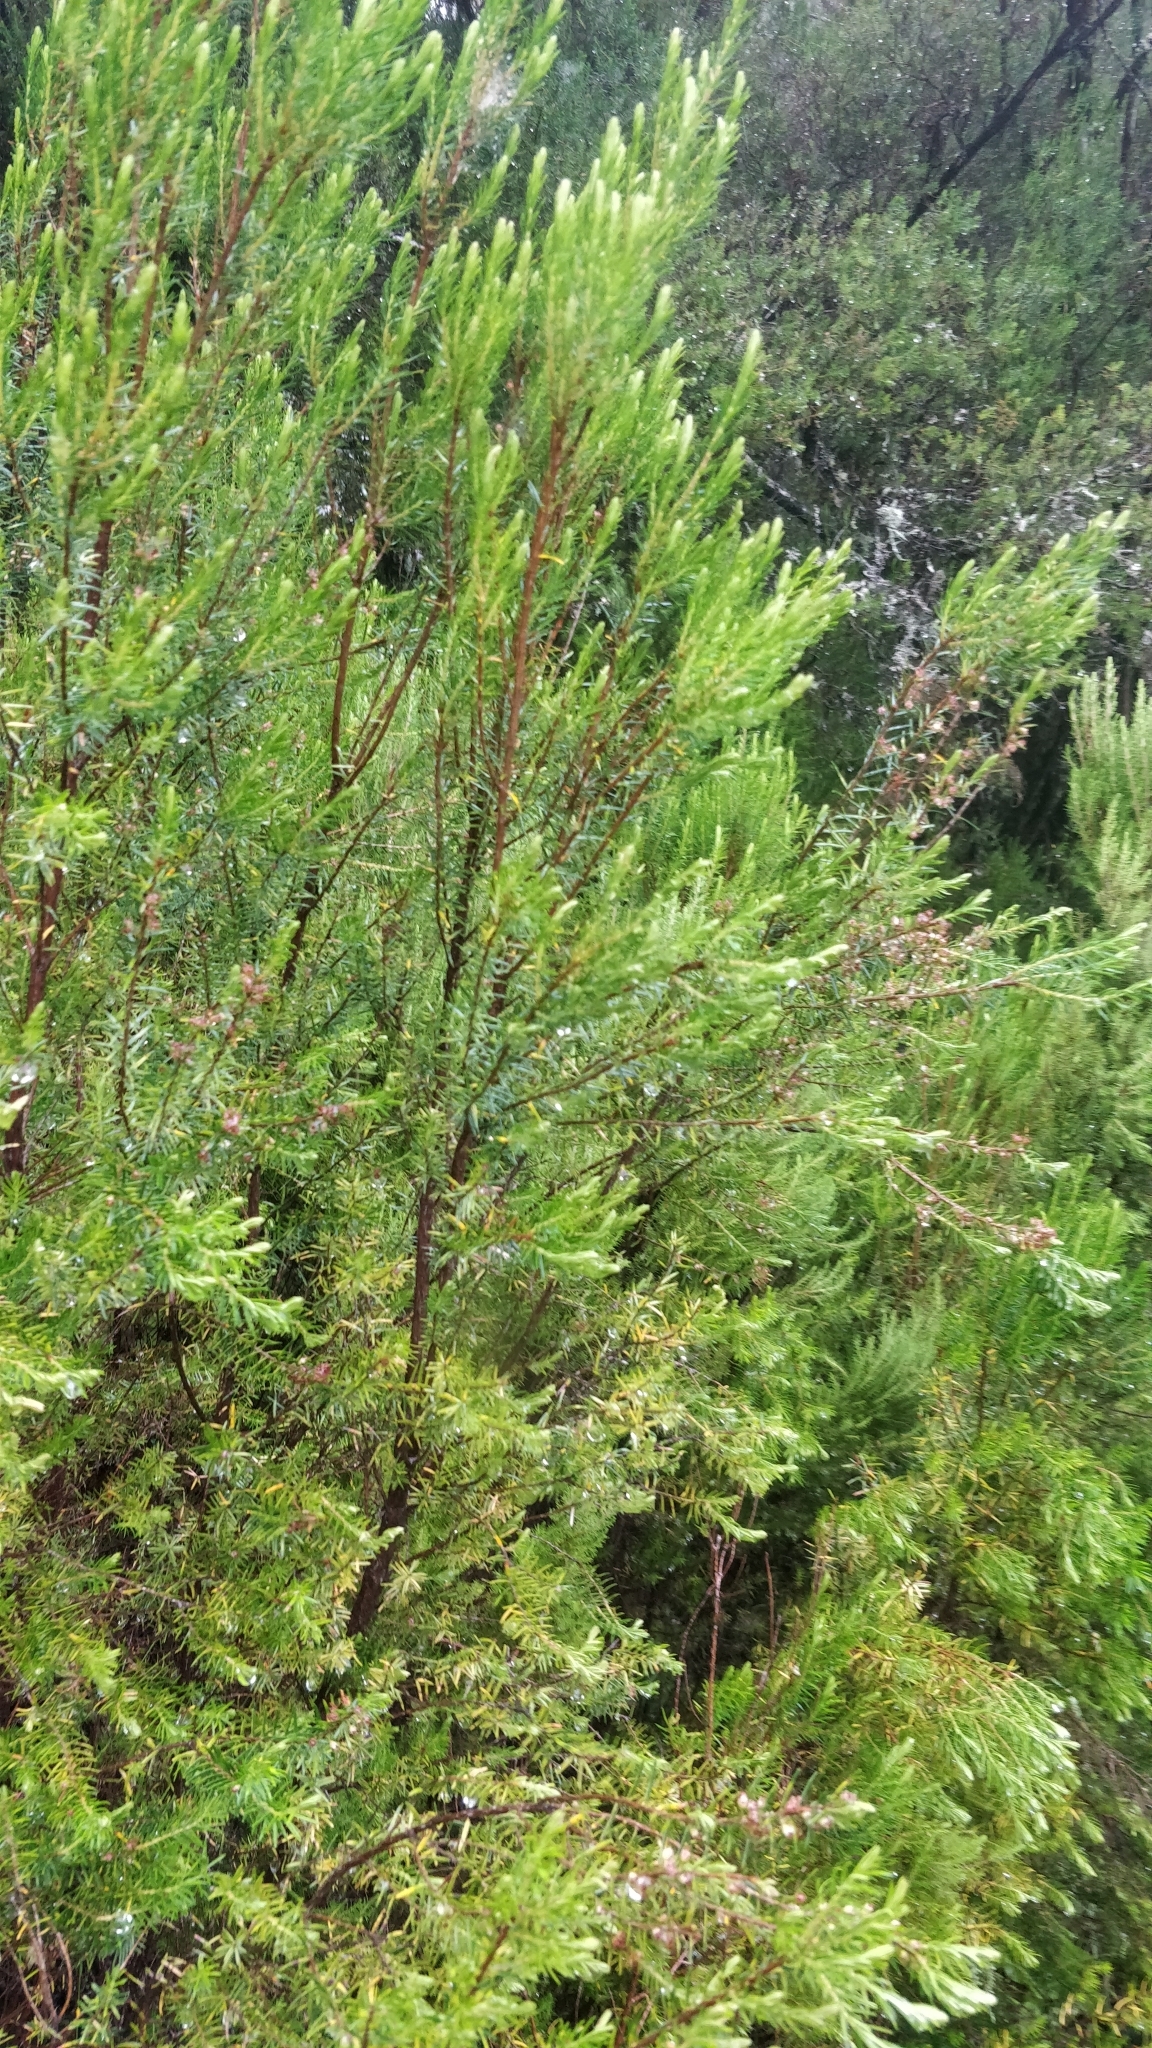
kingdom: Plantae
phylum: Tracheophyta
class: Magnoliopsida
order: Ericales
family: Ericaceae
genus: Erica
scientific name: Erica platycodon
